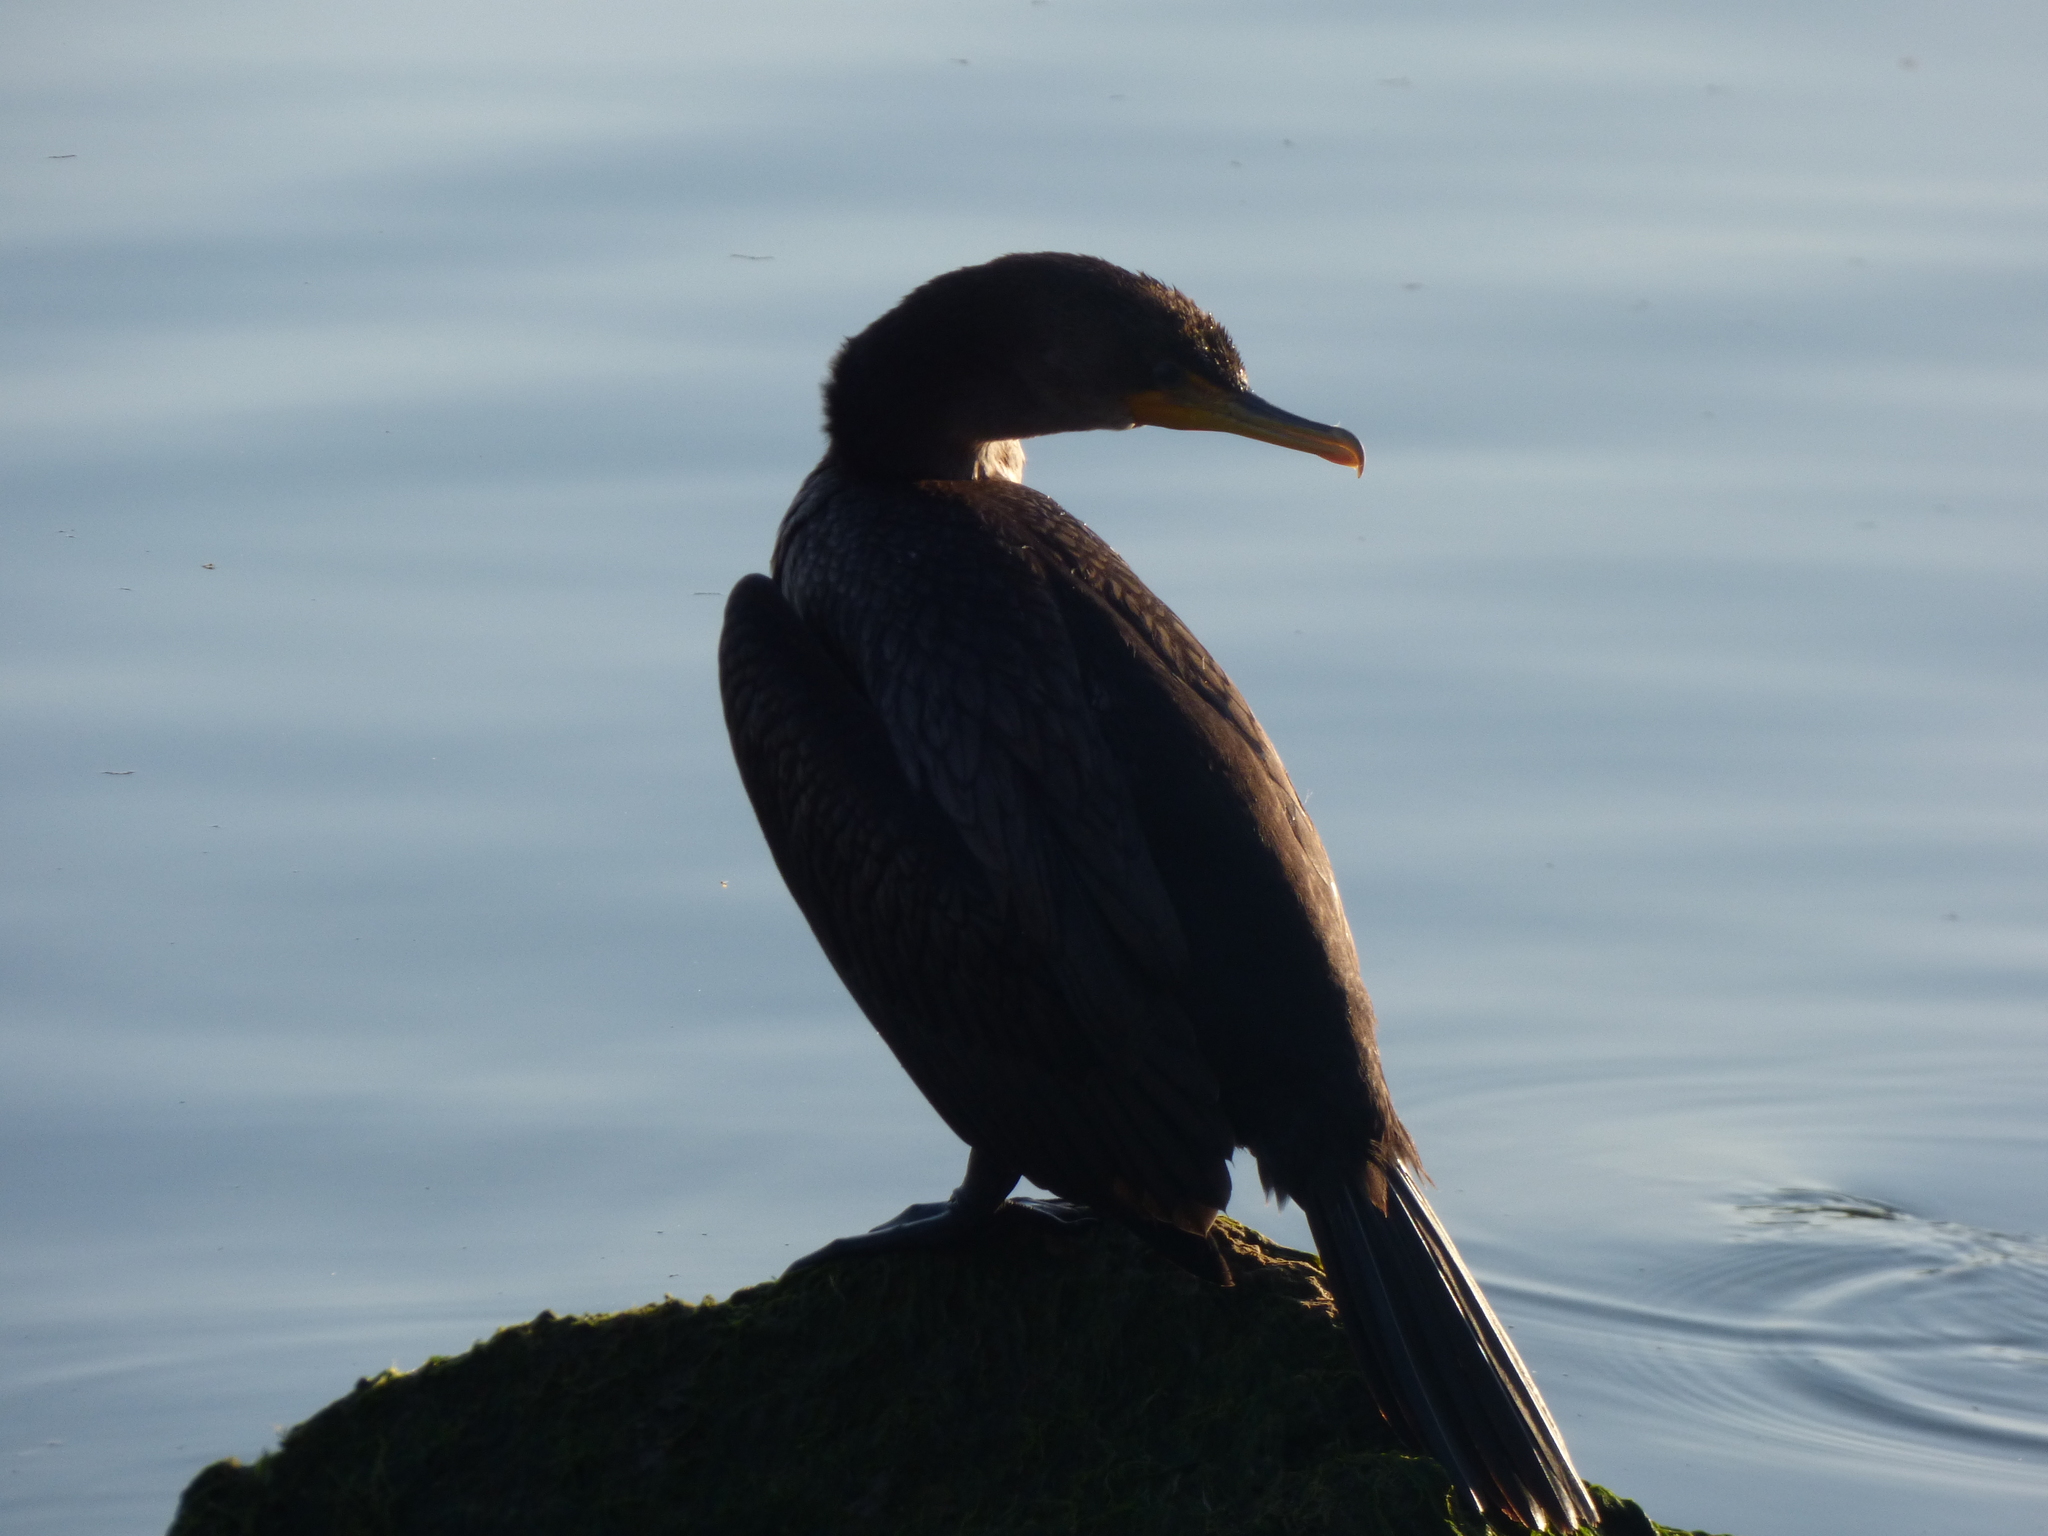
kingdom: Animalia
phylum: Chordata
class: Aves
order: Suliformes
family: Phalacrocoracidae
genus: Phalacrocorax
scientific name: Phalacrocorax auritus
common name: Double-crested cormorant
